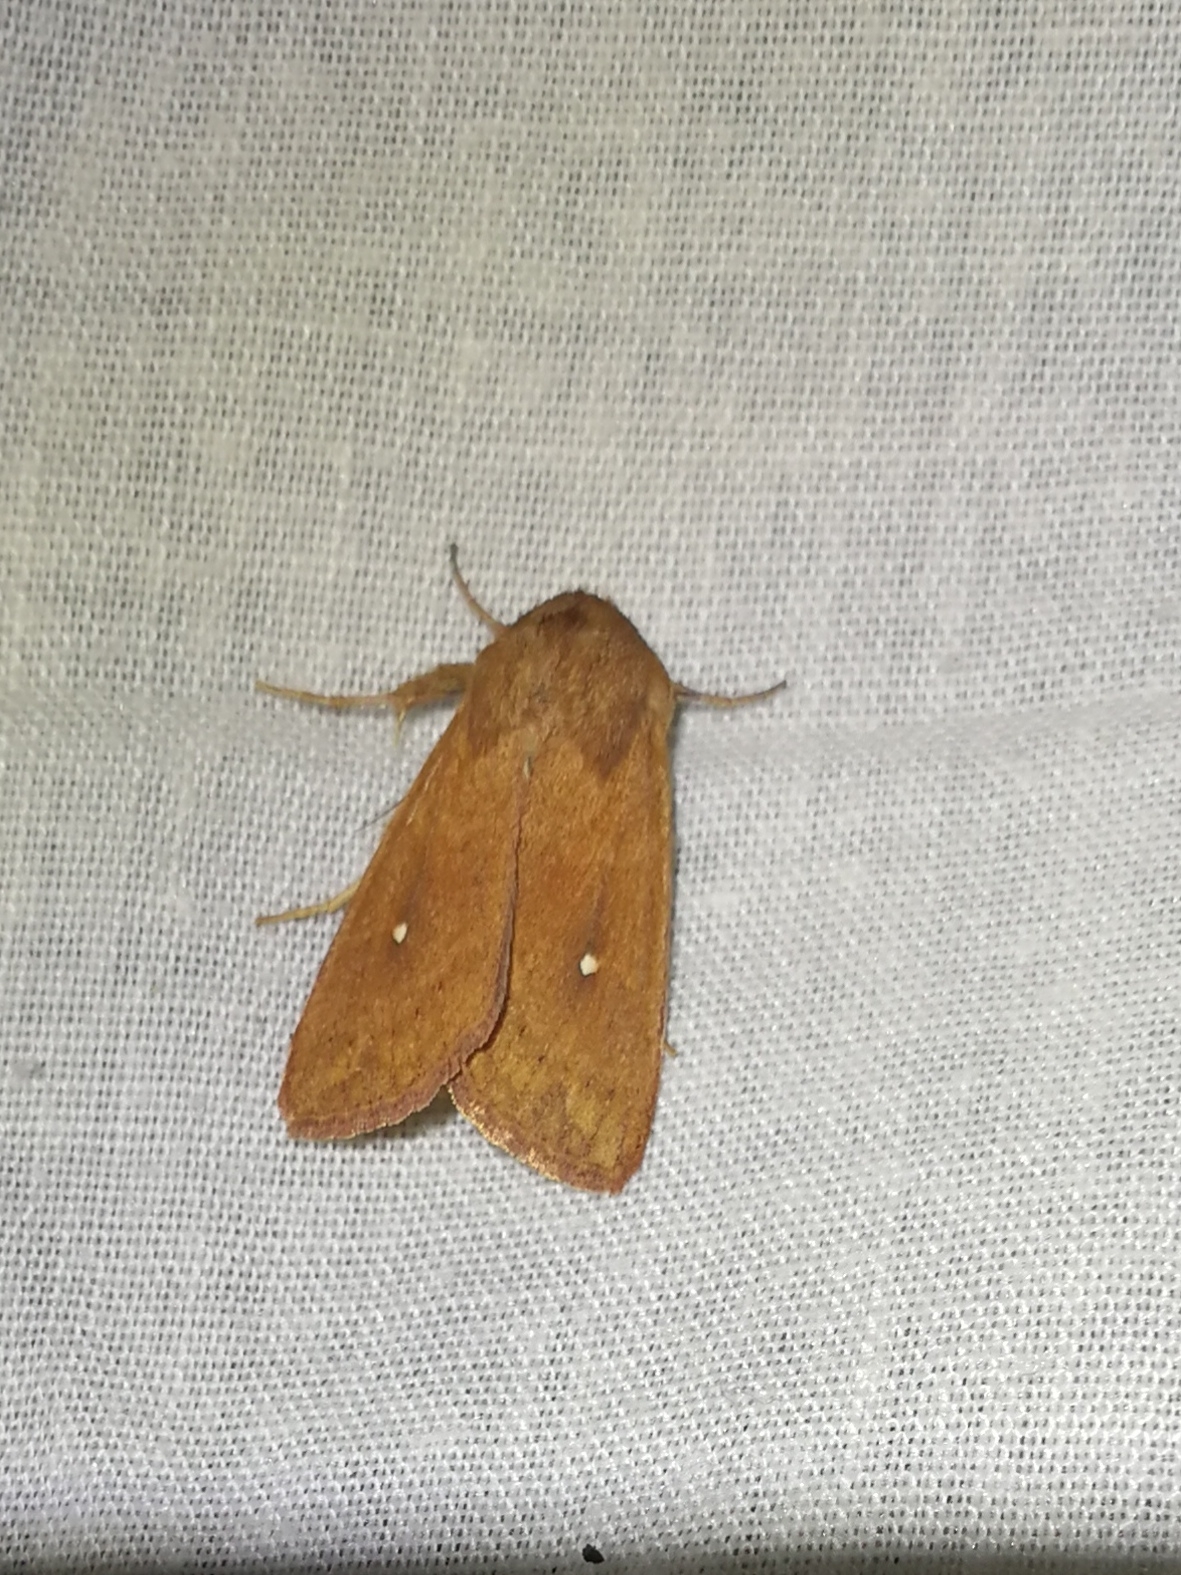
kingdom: Animalia
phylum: Arthropoda
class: Insecta
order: Lepidoptera
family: Noctuidae
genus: Mythimna
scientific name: Mythimna albipuncta
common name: White-point
